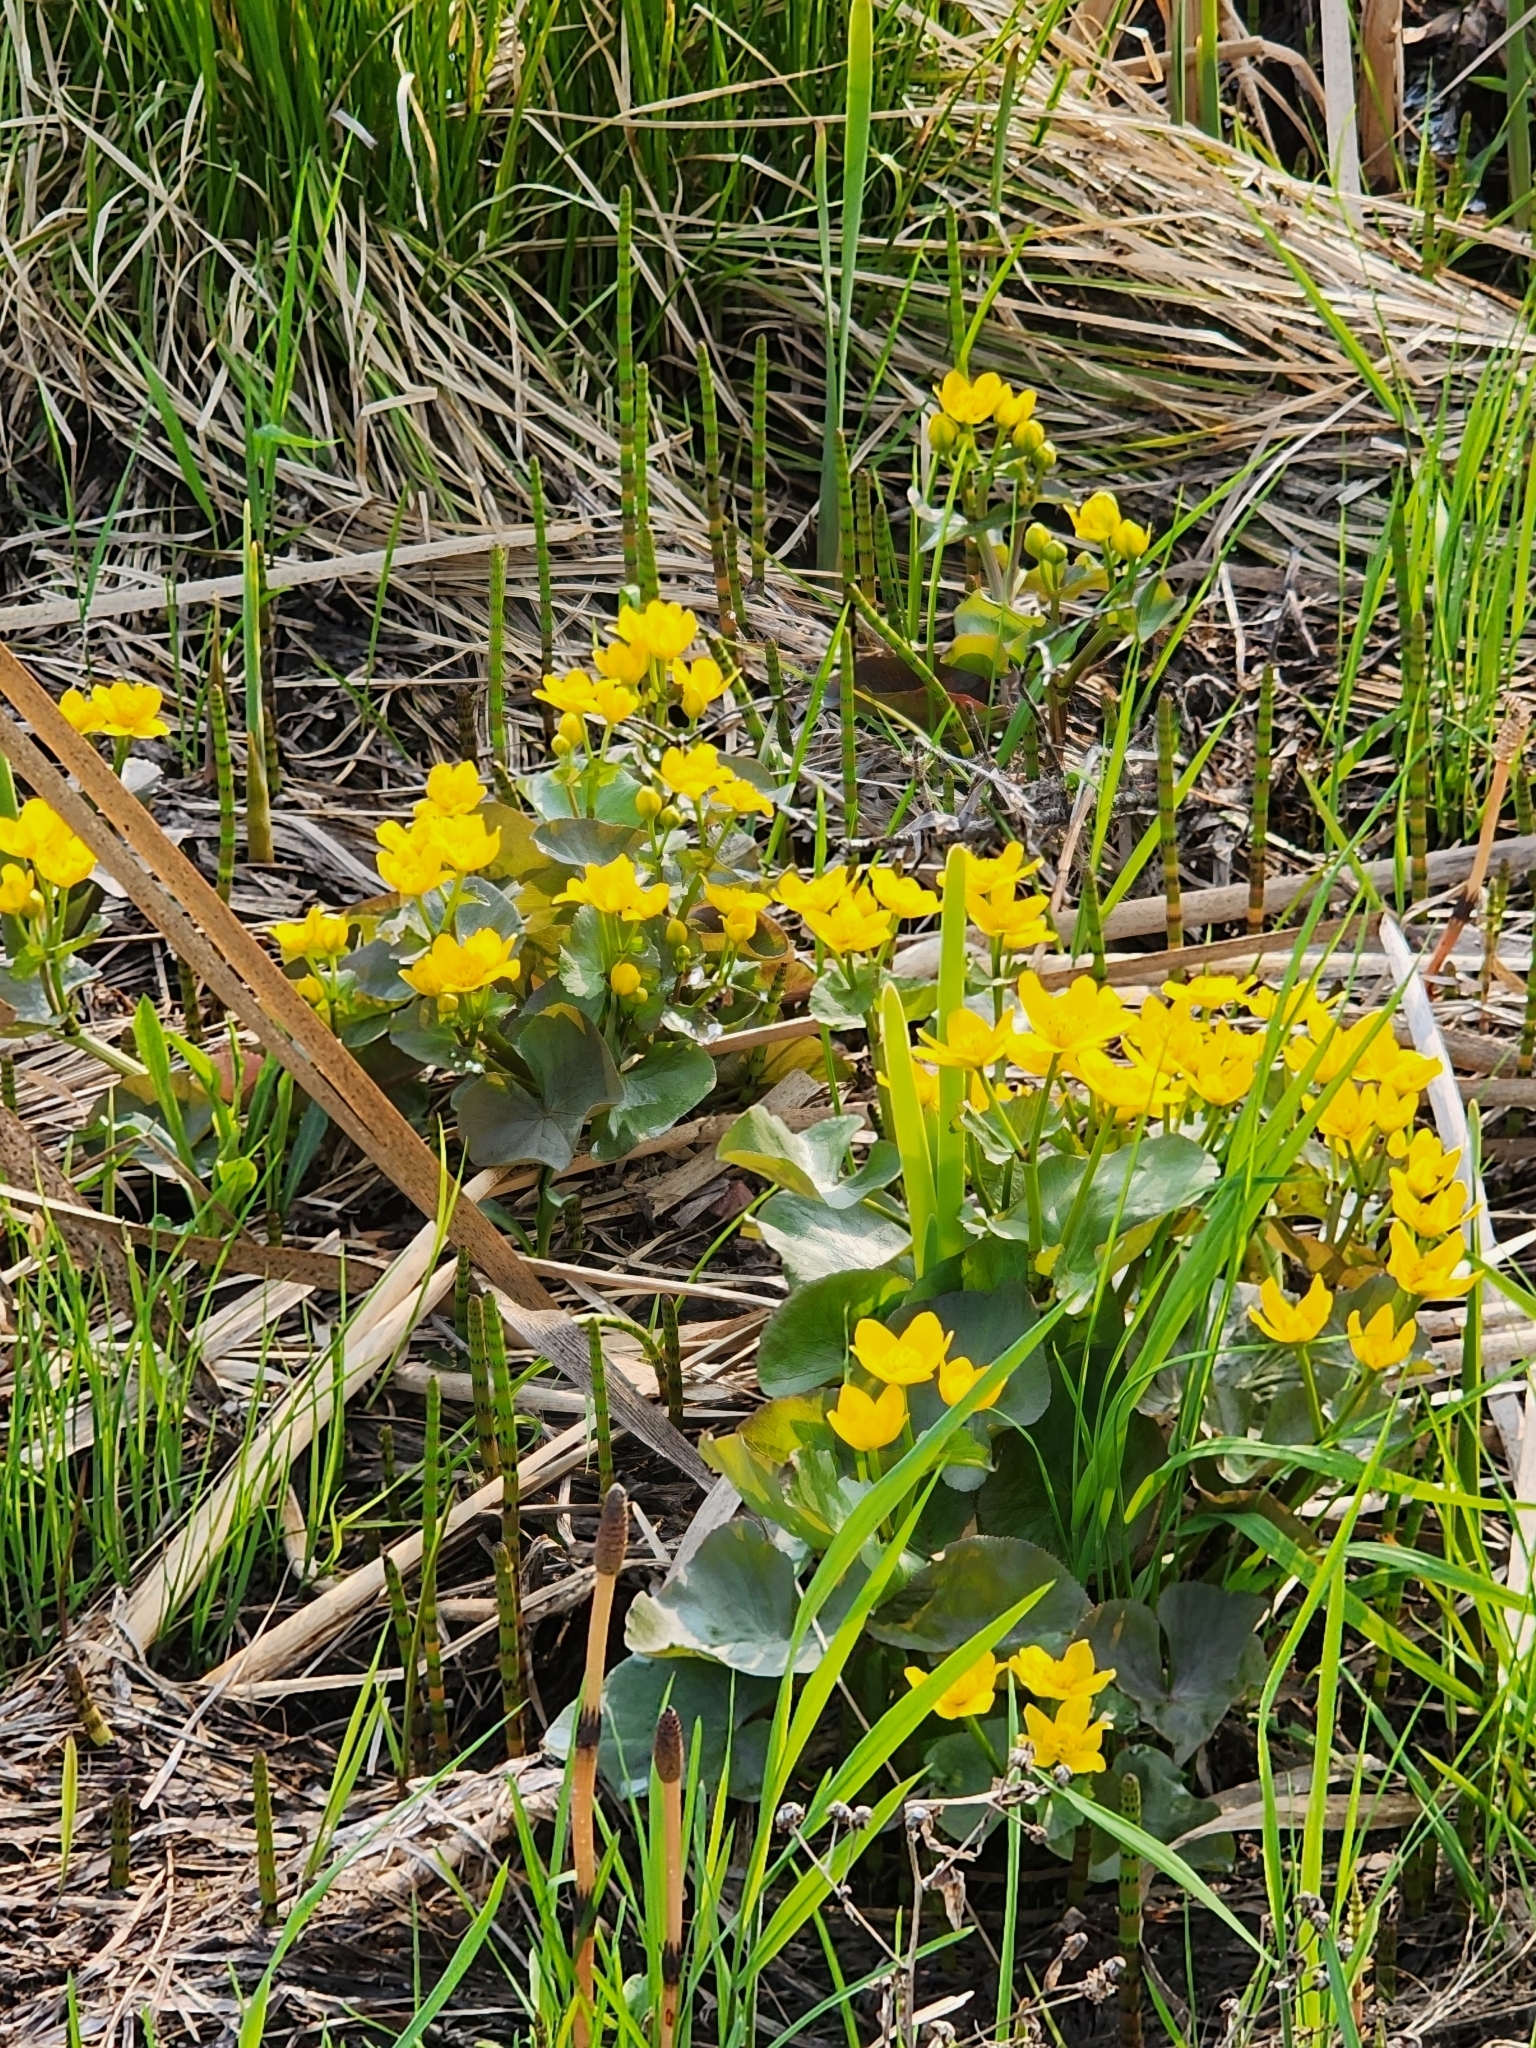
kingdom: Plantae
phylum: Tracheophyta
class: Magnoliopsida
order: Ranunculales
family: Ranunculaceae
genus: Caltha
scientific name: Caltha palustris
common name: Marsh marigold
